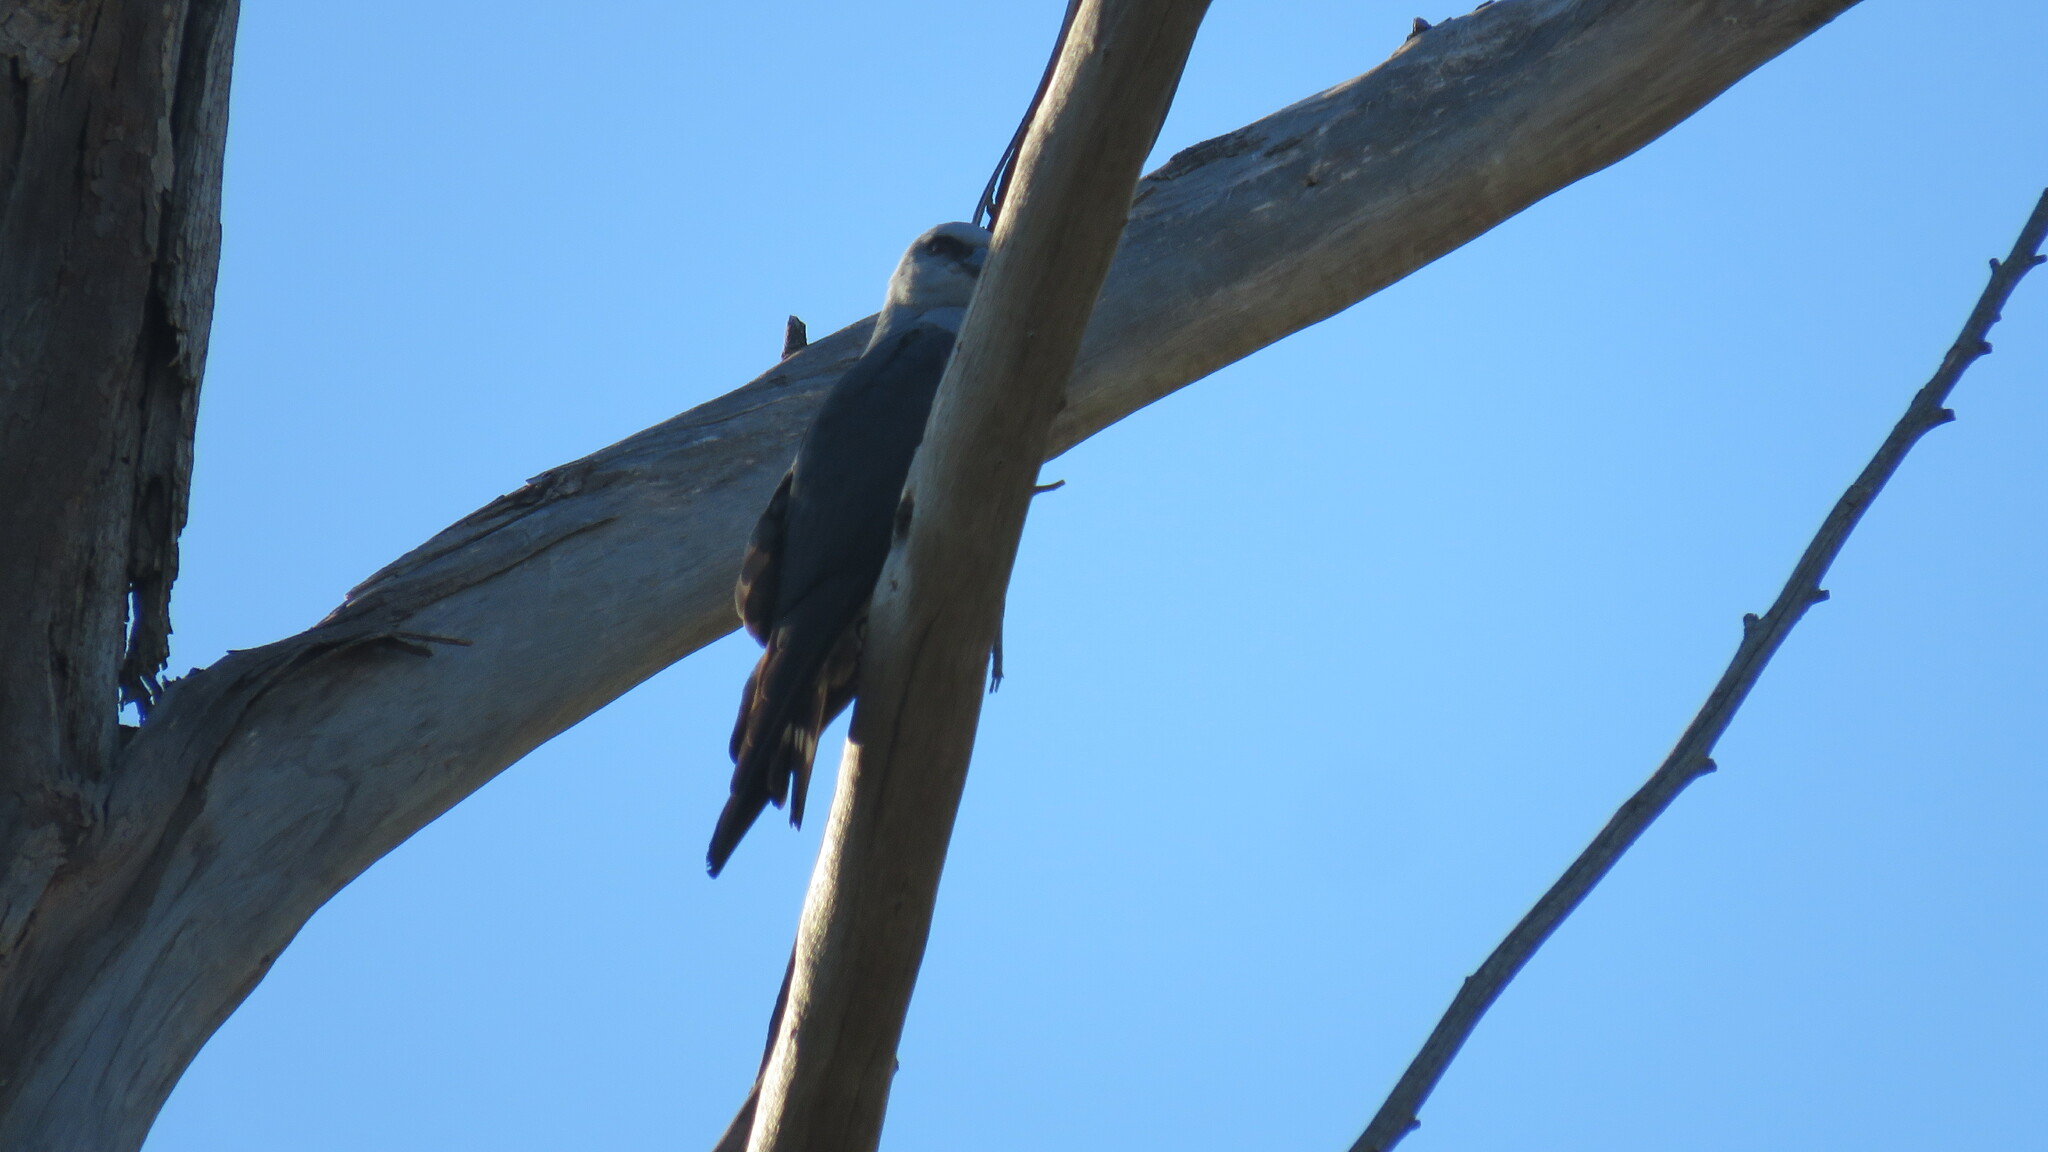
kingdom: Animalia
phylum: Chordata
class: Aves
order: Accipitriformes
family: Accipitridae
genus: Ictinia
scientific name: Ictinia plumbea
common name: Plumbeous kite
